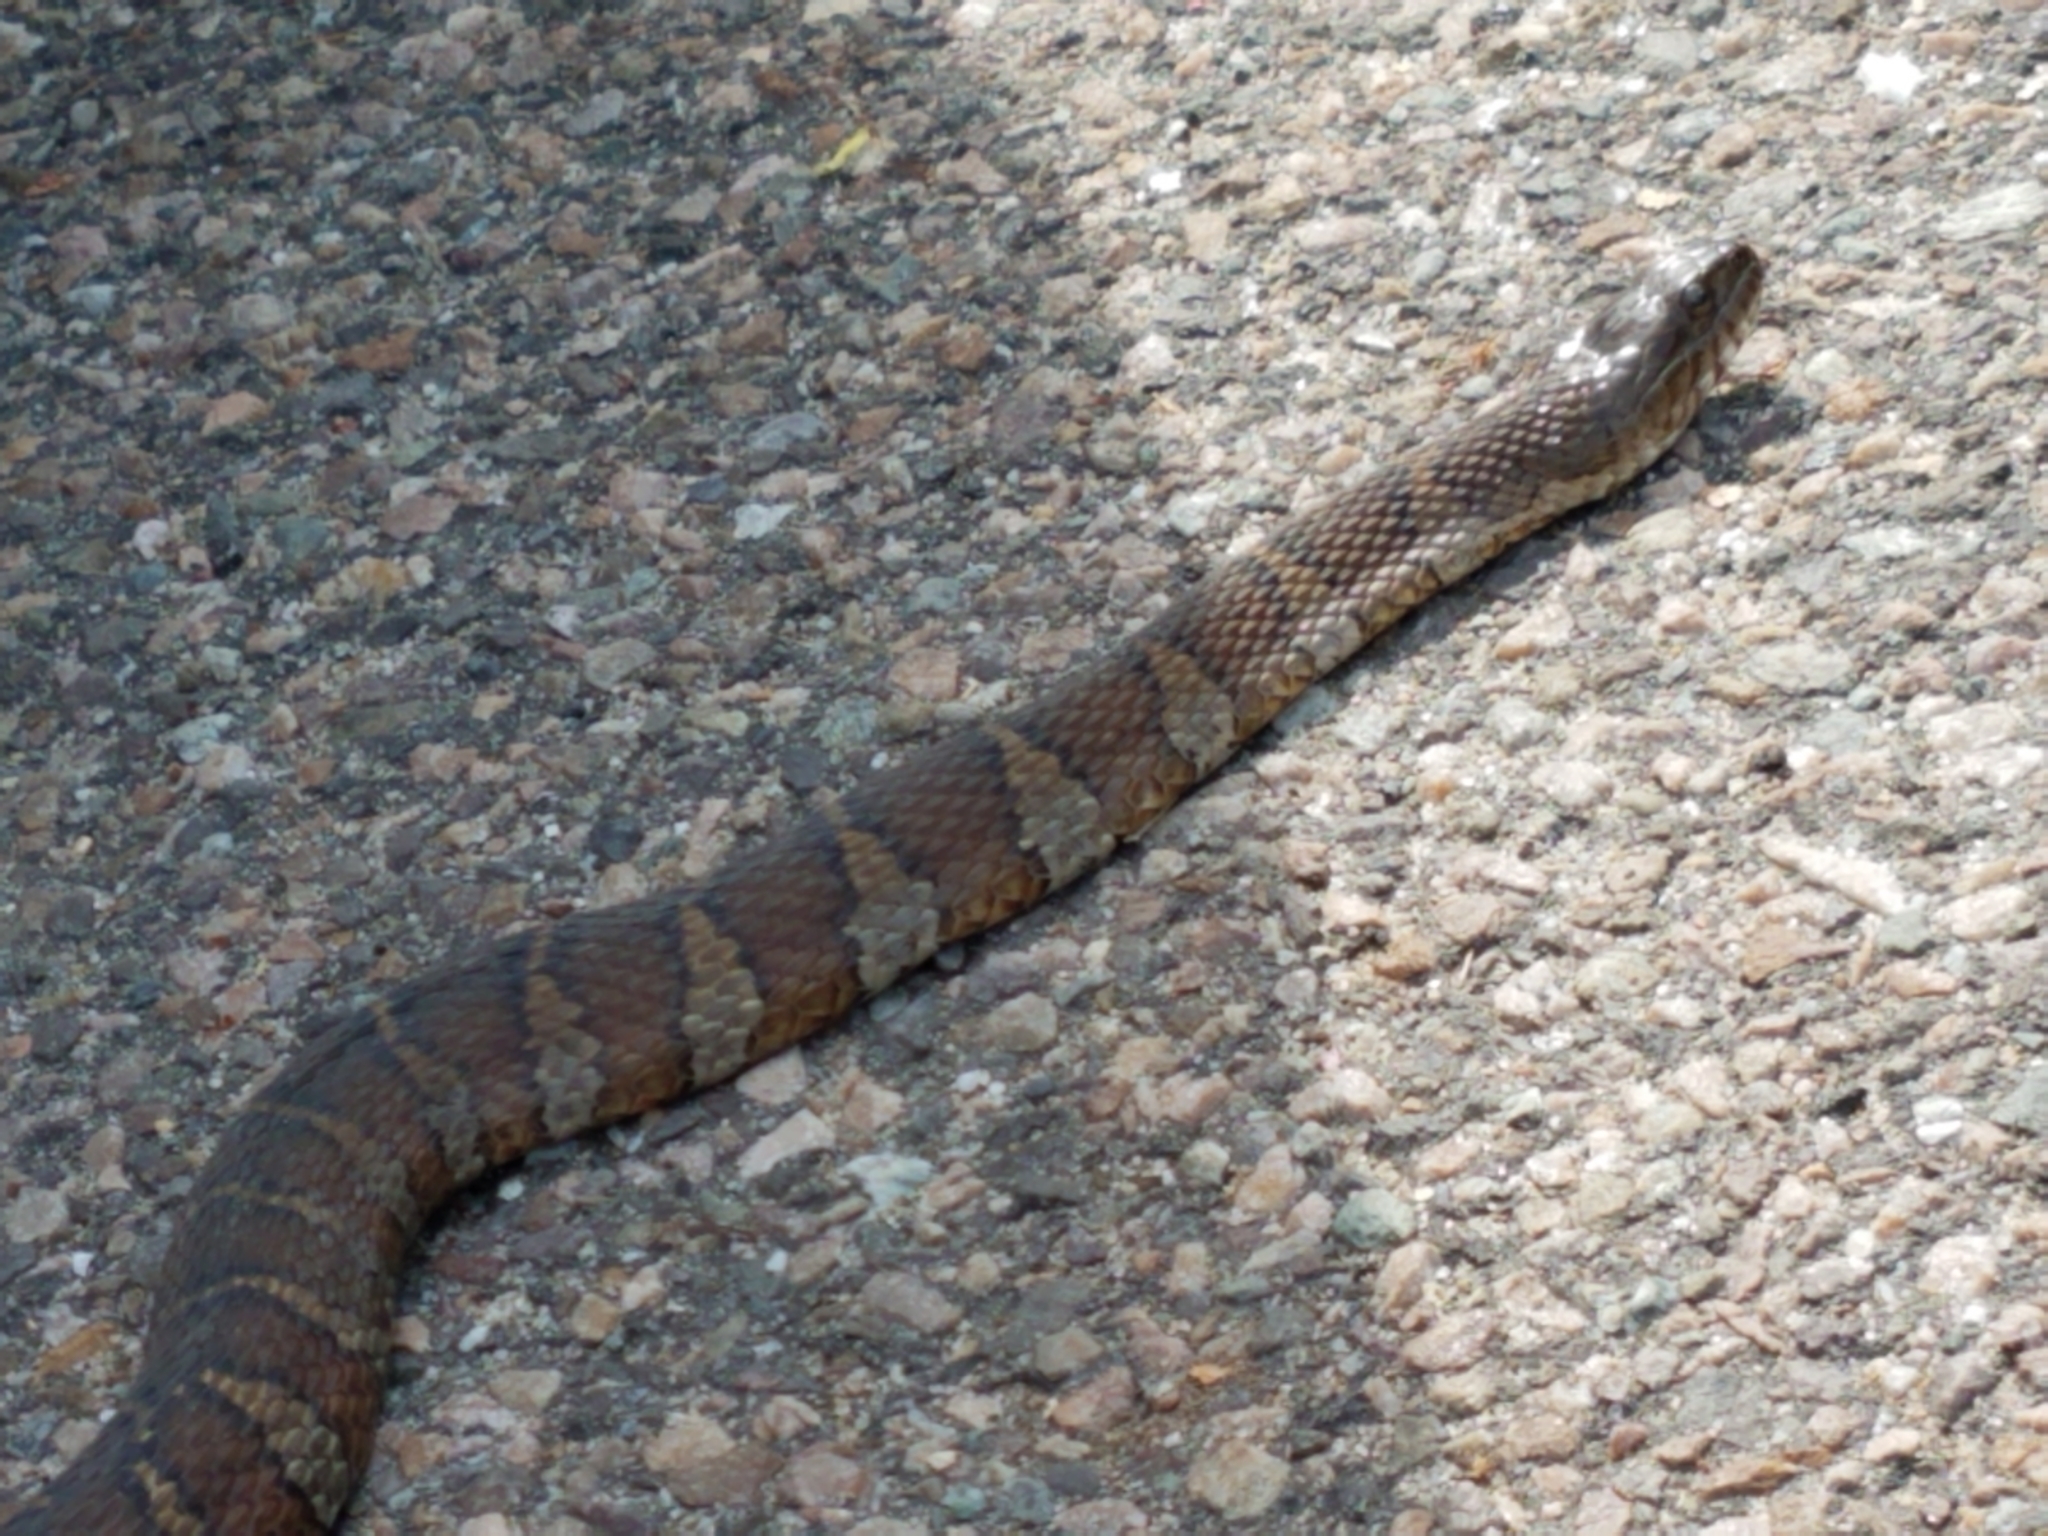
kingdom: Animalia
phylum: Chordata
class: Squamata
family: Colubridae
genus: Nerodia
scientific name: Nerodia sipedon
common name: Northern water snake
